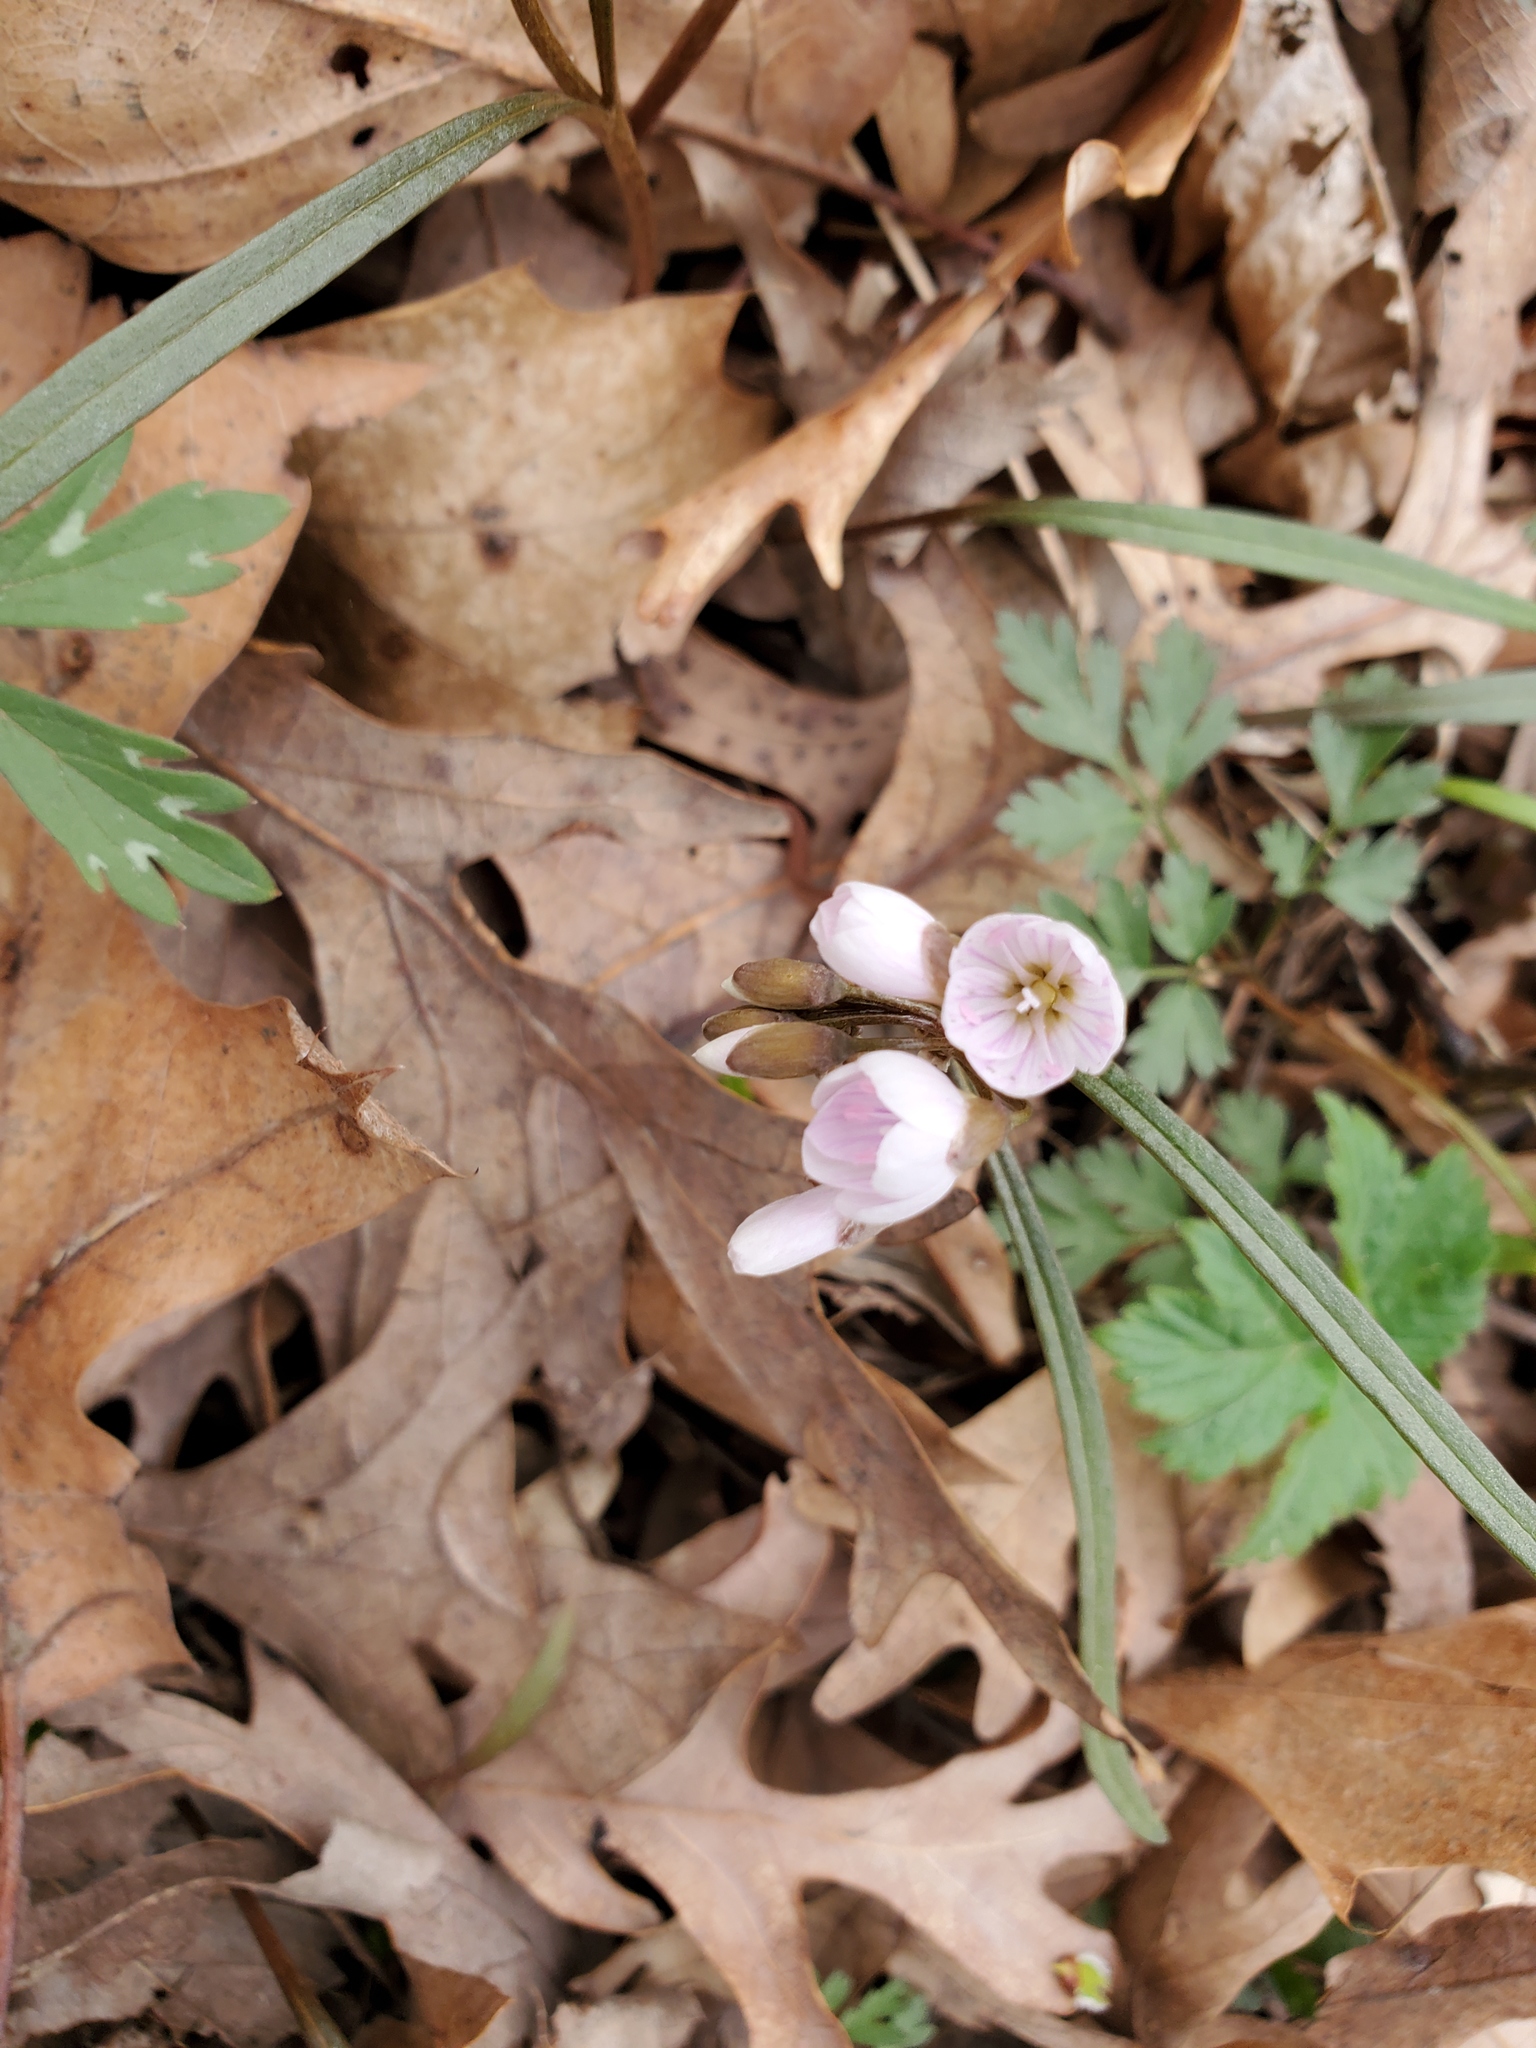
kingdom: Plantae
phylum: Tracheophyta
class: Magnoliopsida
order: Caryophyllales
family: Montiaceae
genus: Claytonia
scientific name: Claytonia virginica
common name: Virginia springbeauty
